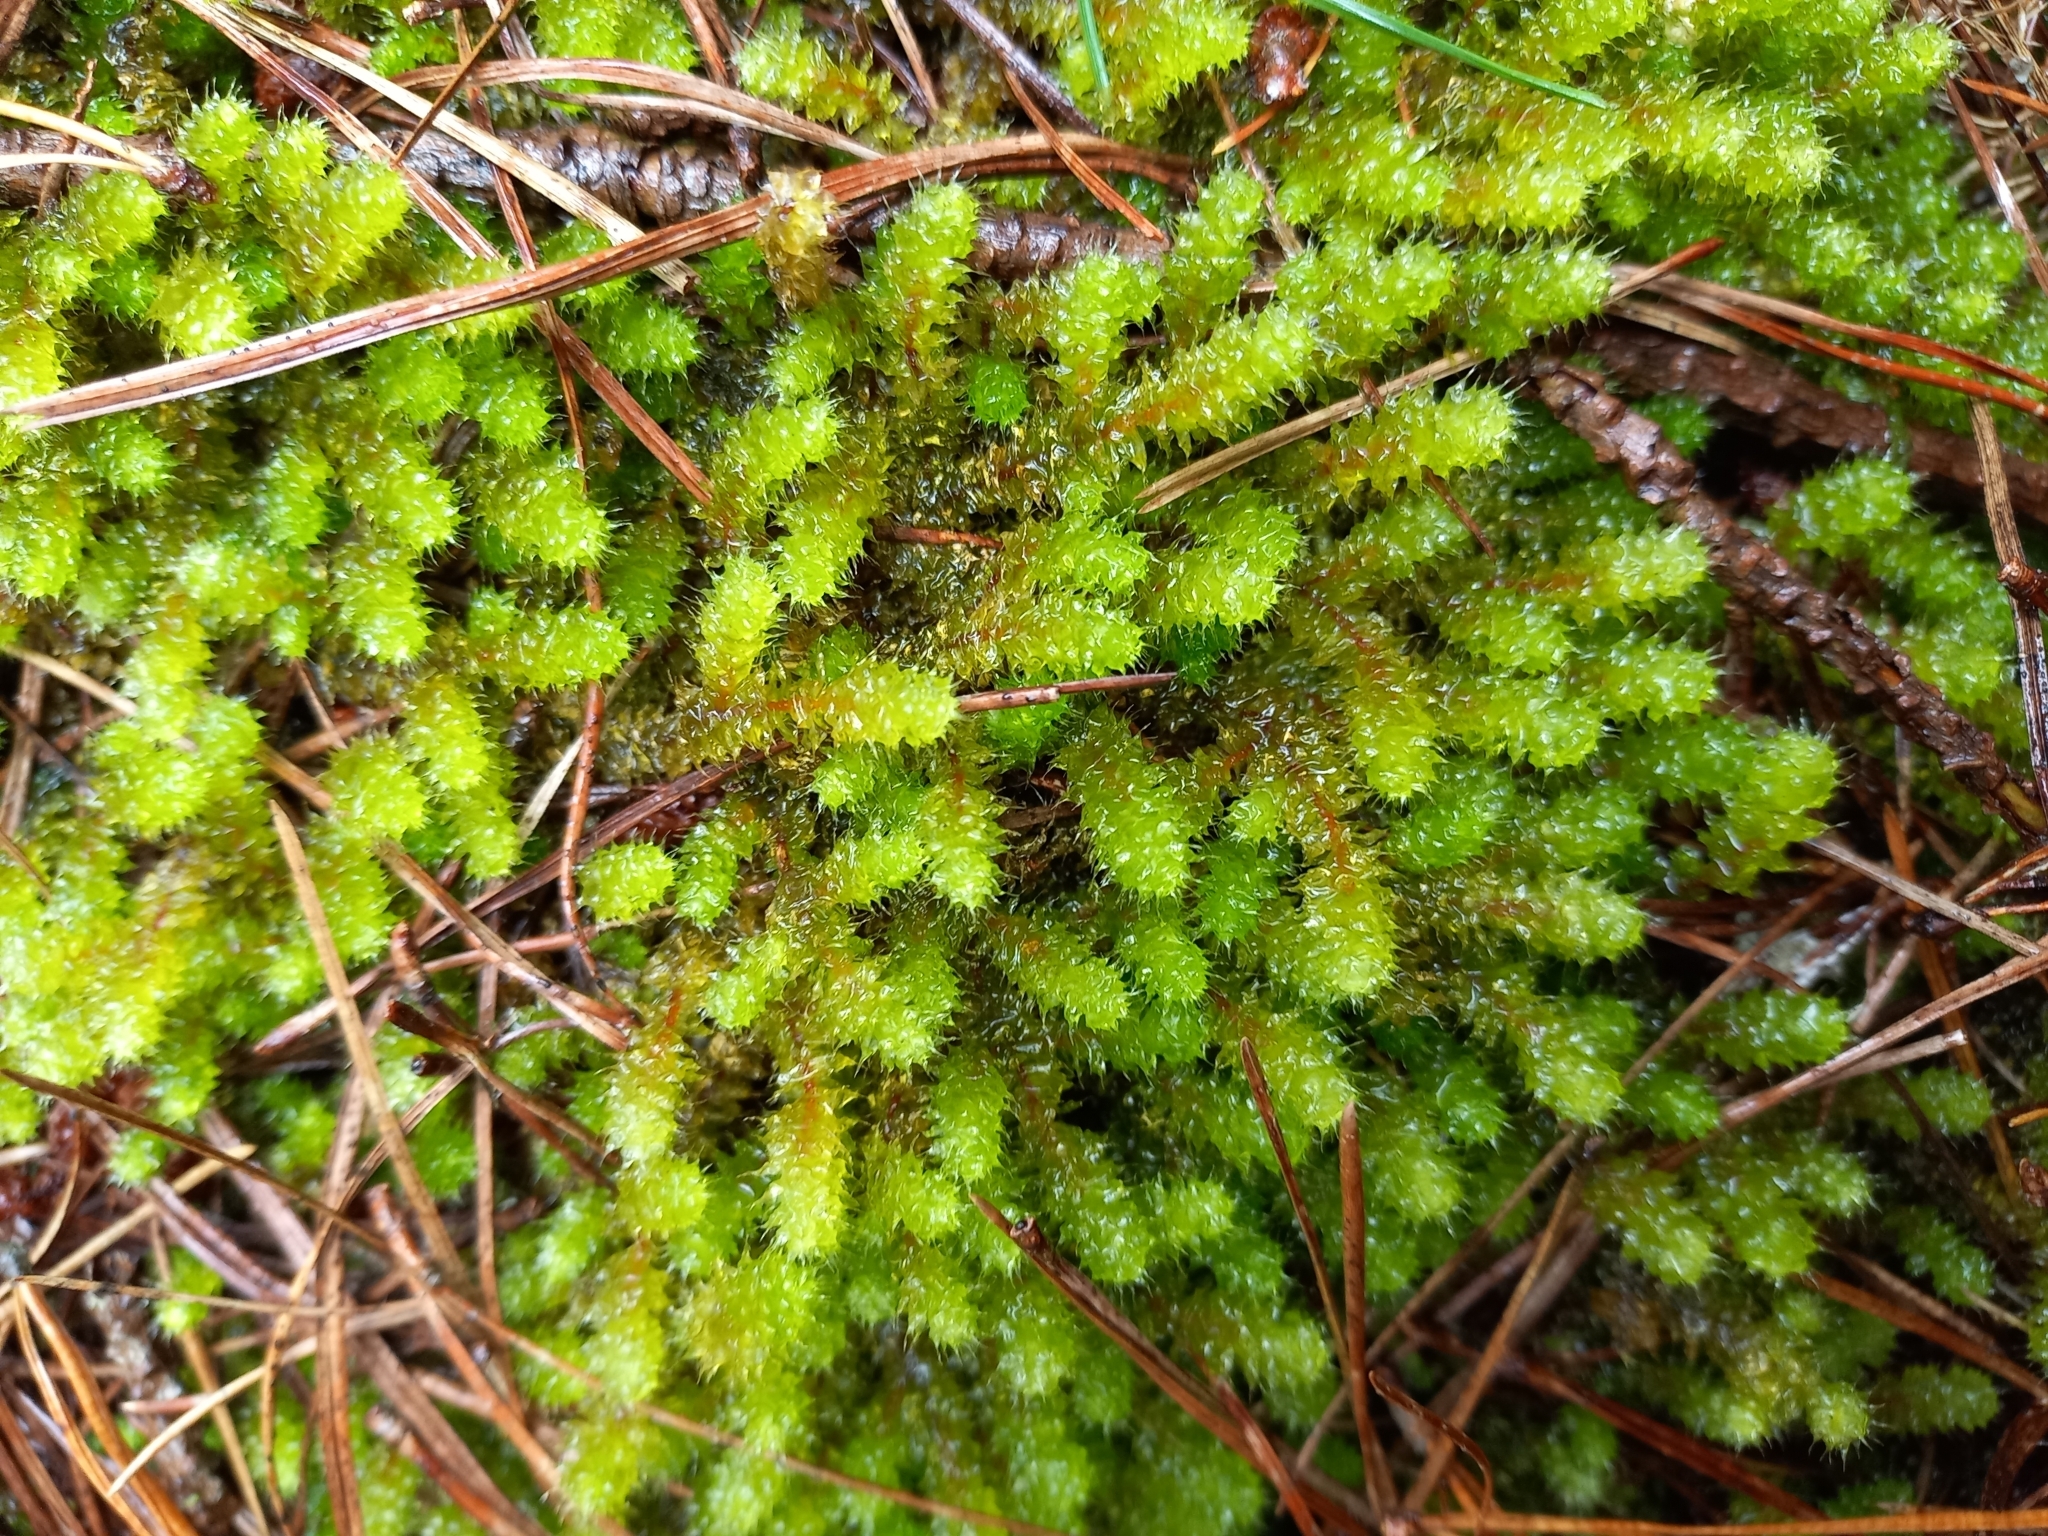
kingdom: Plantae
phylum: Bryophyta
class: Bryopsida
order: Ptychomniales
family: Ptychomniaceae
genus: Ptychomnion
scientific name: Ptychomnion aciculare
